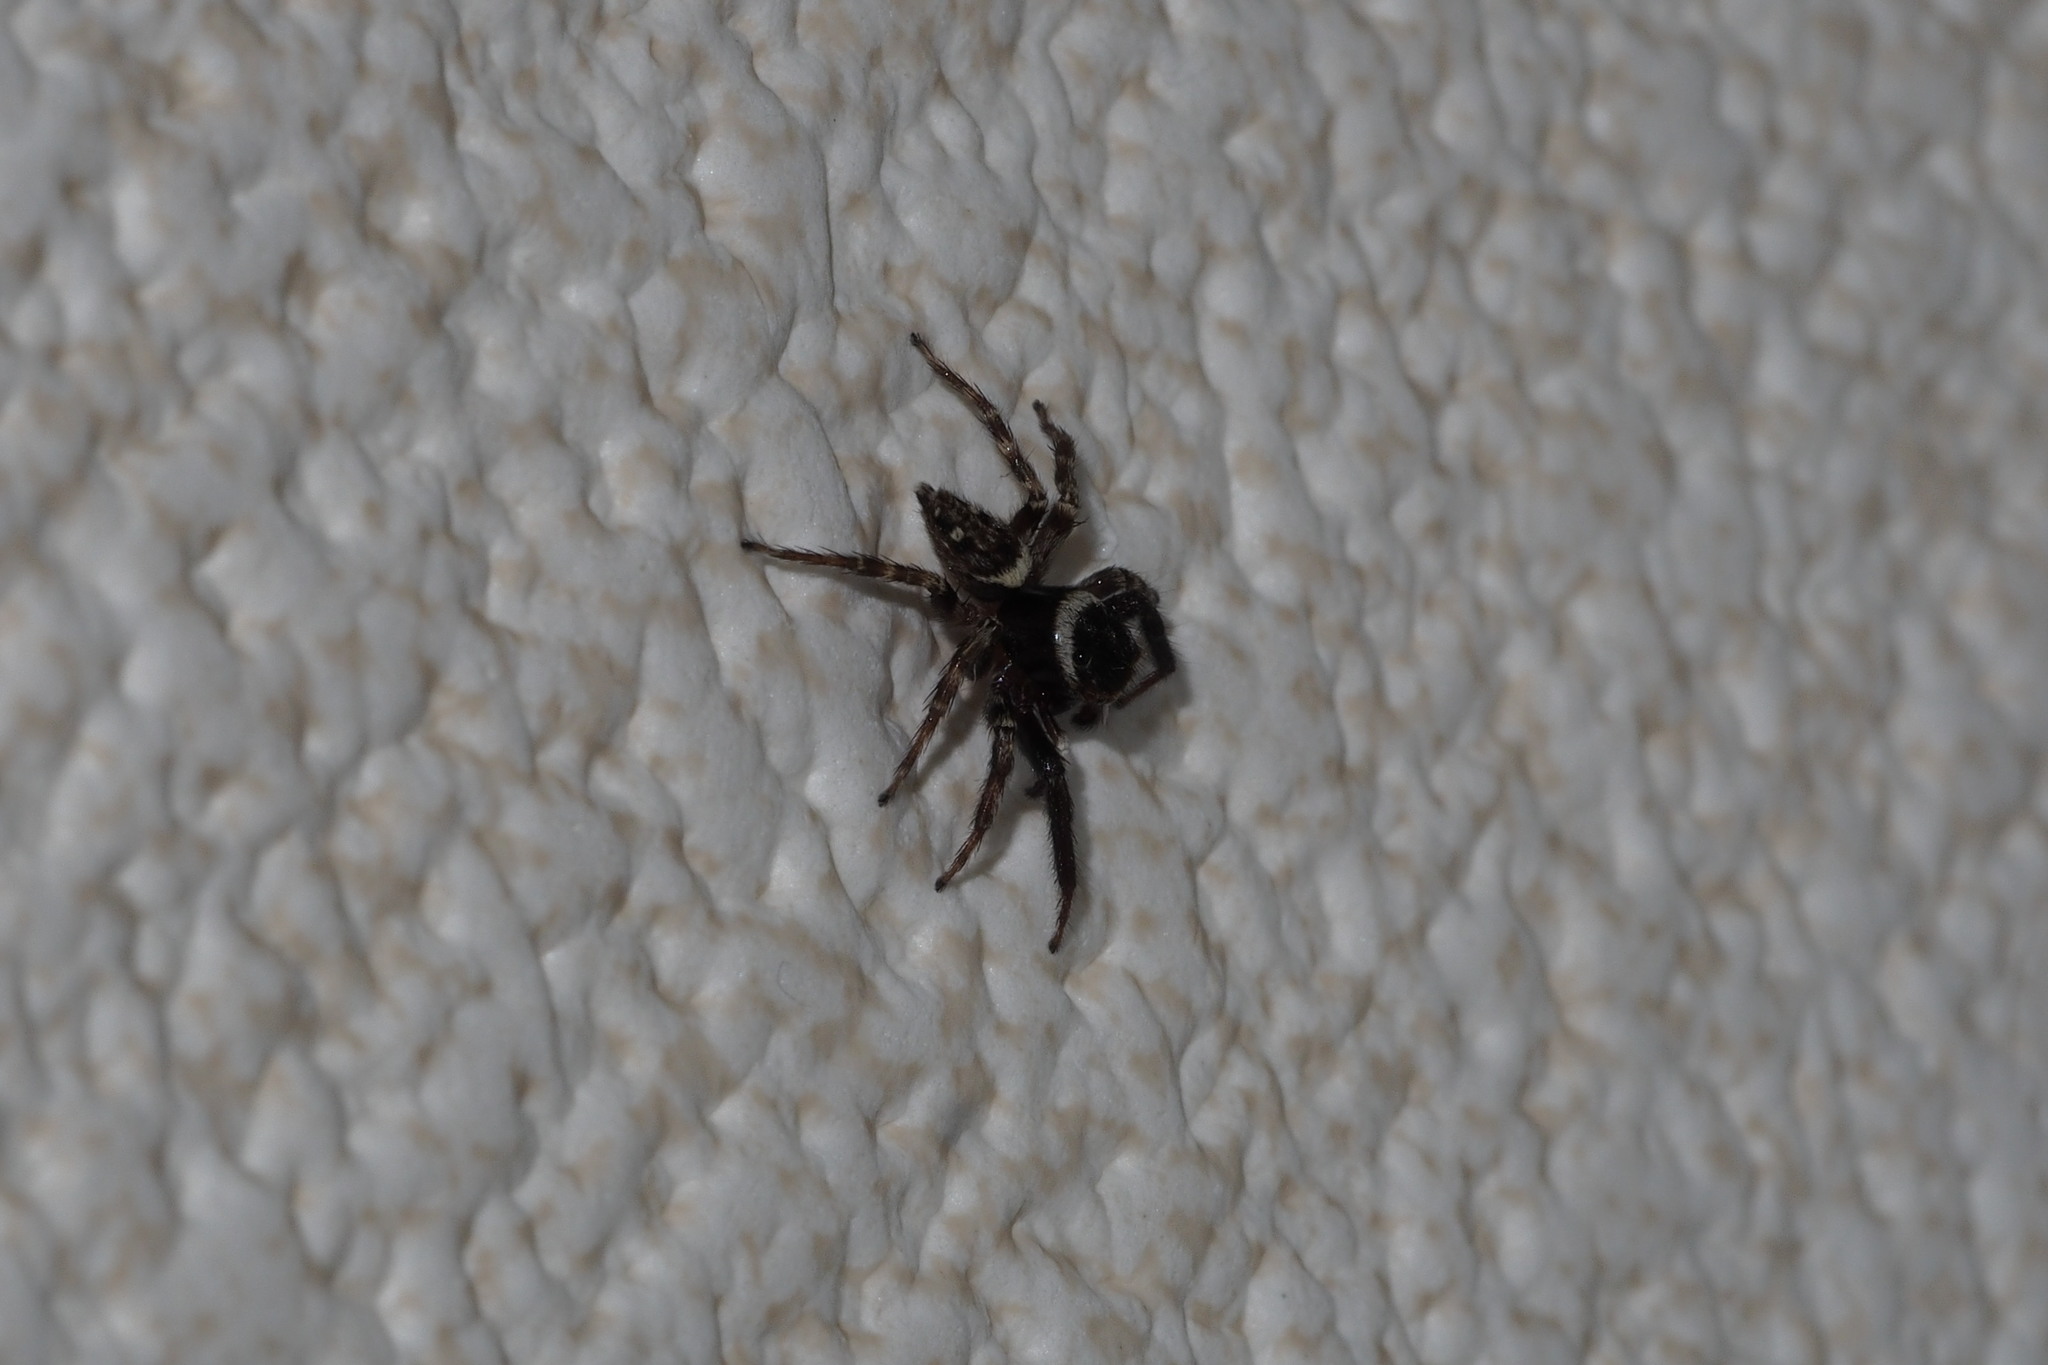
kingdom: Animalia
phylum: Arthropoda
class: Arachnida
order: Araneae
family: Salticidae
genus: Hasarius
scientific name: Hasarius adansoni
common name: Jumping spider
